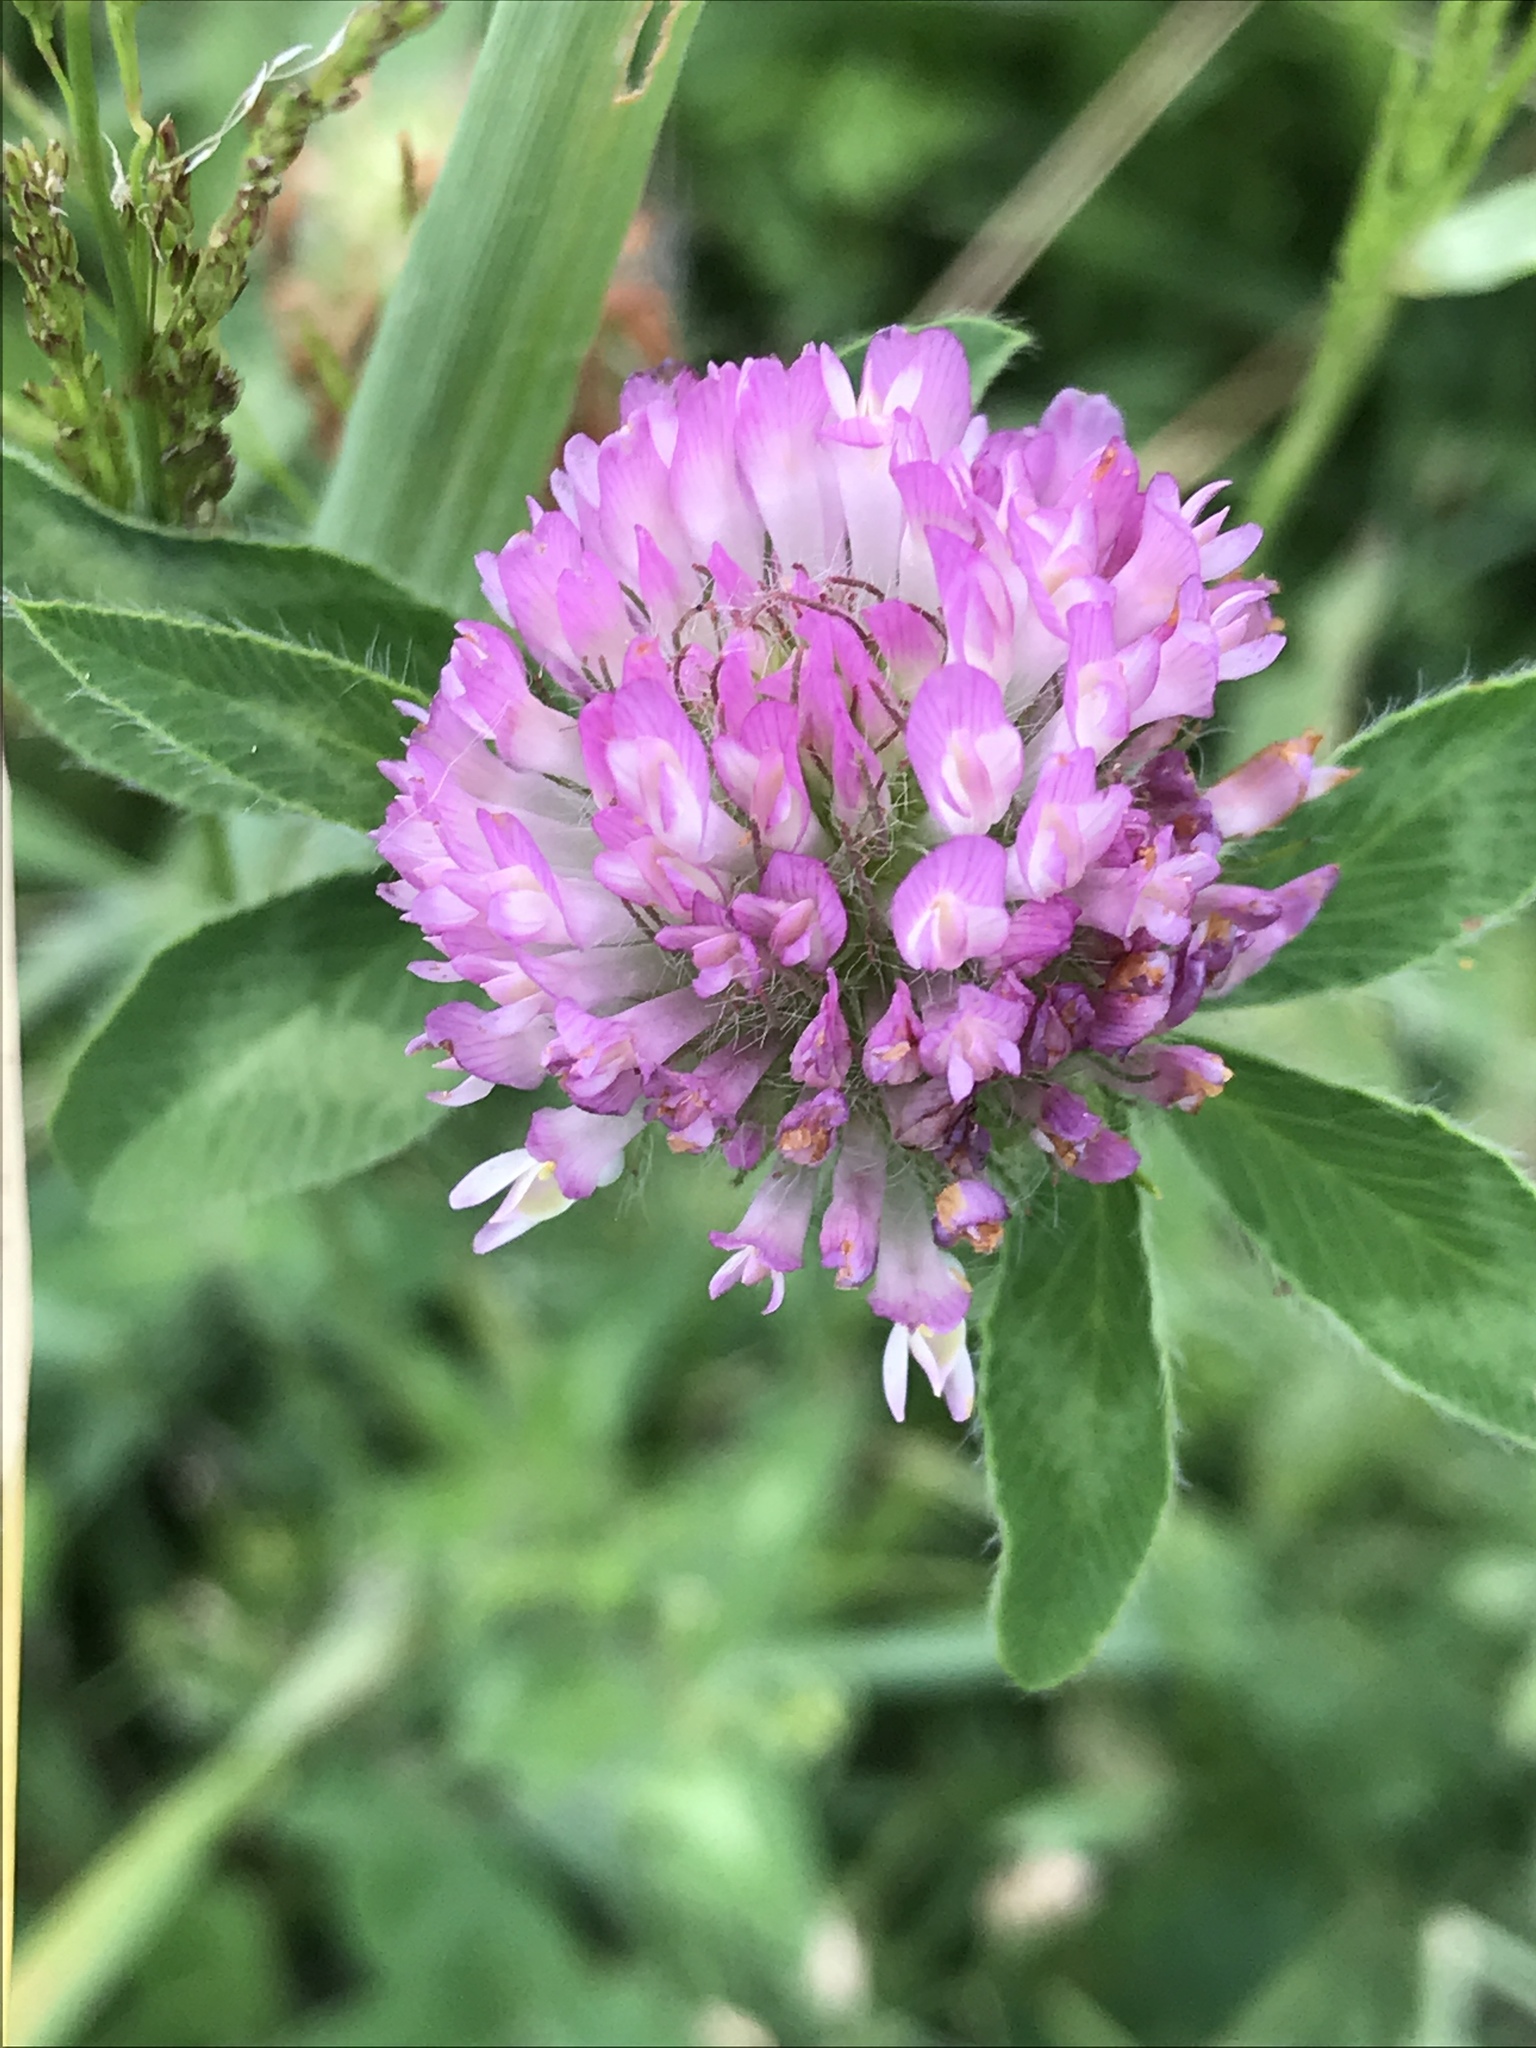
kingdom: Plantae
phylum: Tracheophyta
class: Magnoliopsida
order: Fabales
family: Fabaceae
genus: Trifolium
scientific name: Trifolium pratense
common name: Red clover
